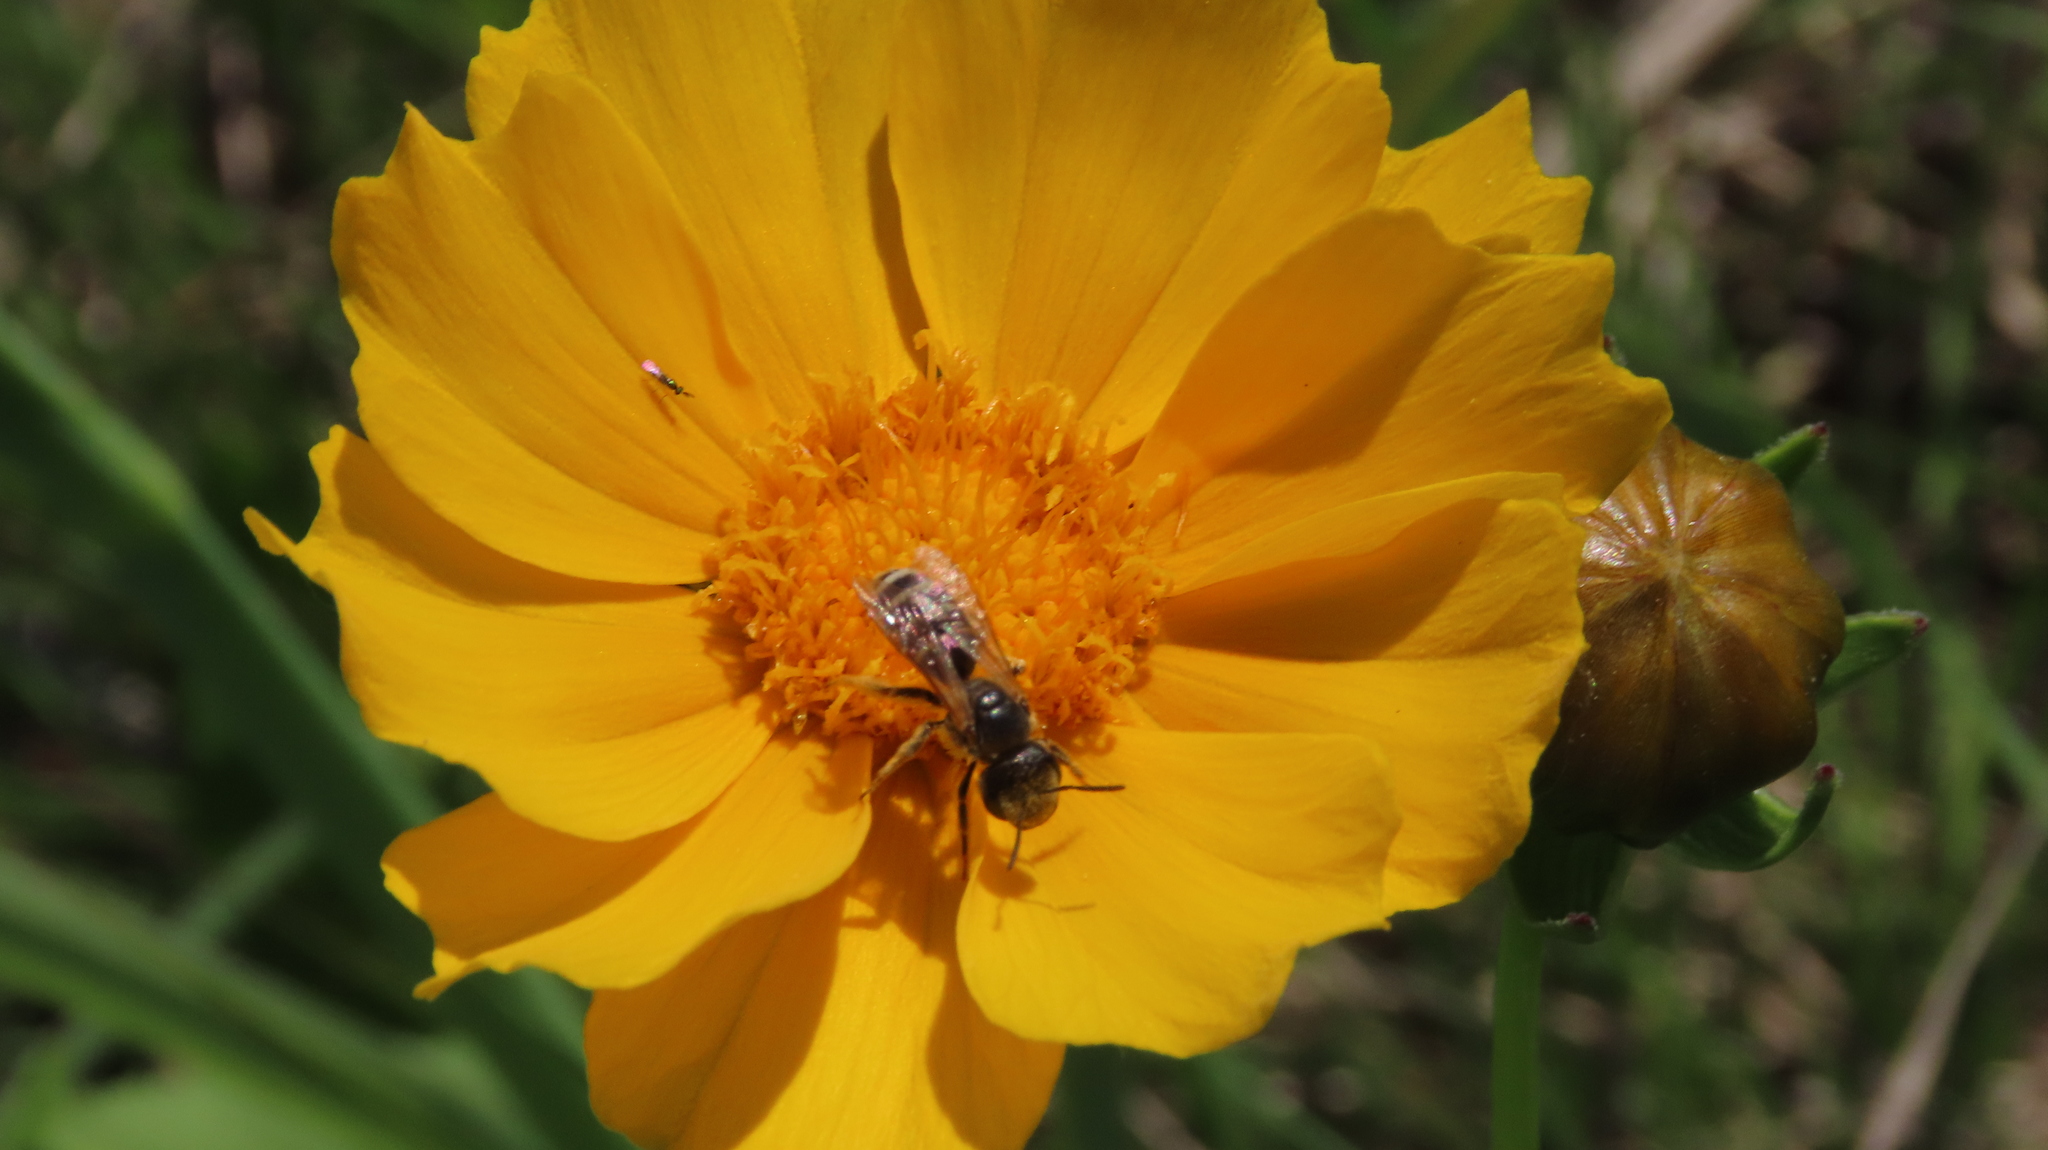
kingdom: Animalia
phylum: Arthropoda
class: Insecta
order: Hymenoptera
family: Halictidae
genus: Halictus
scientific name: Halictus ligatus
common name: Ligated furrow bee
